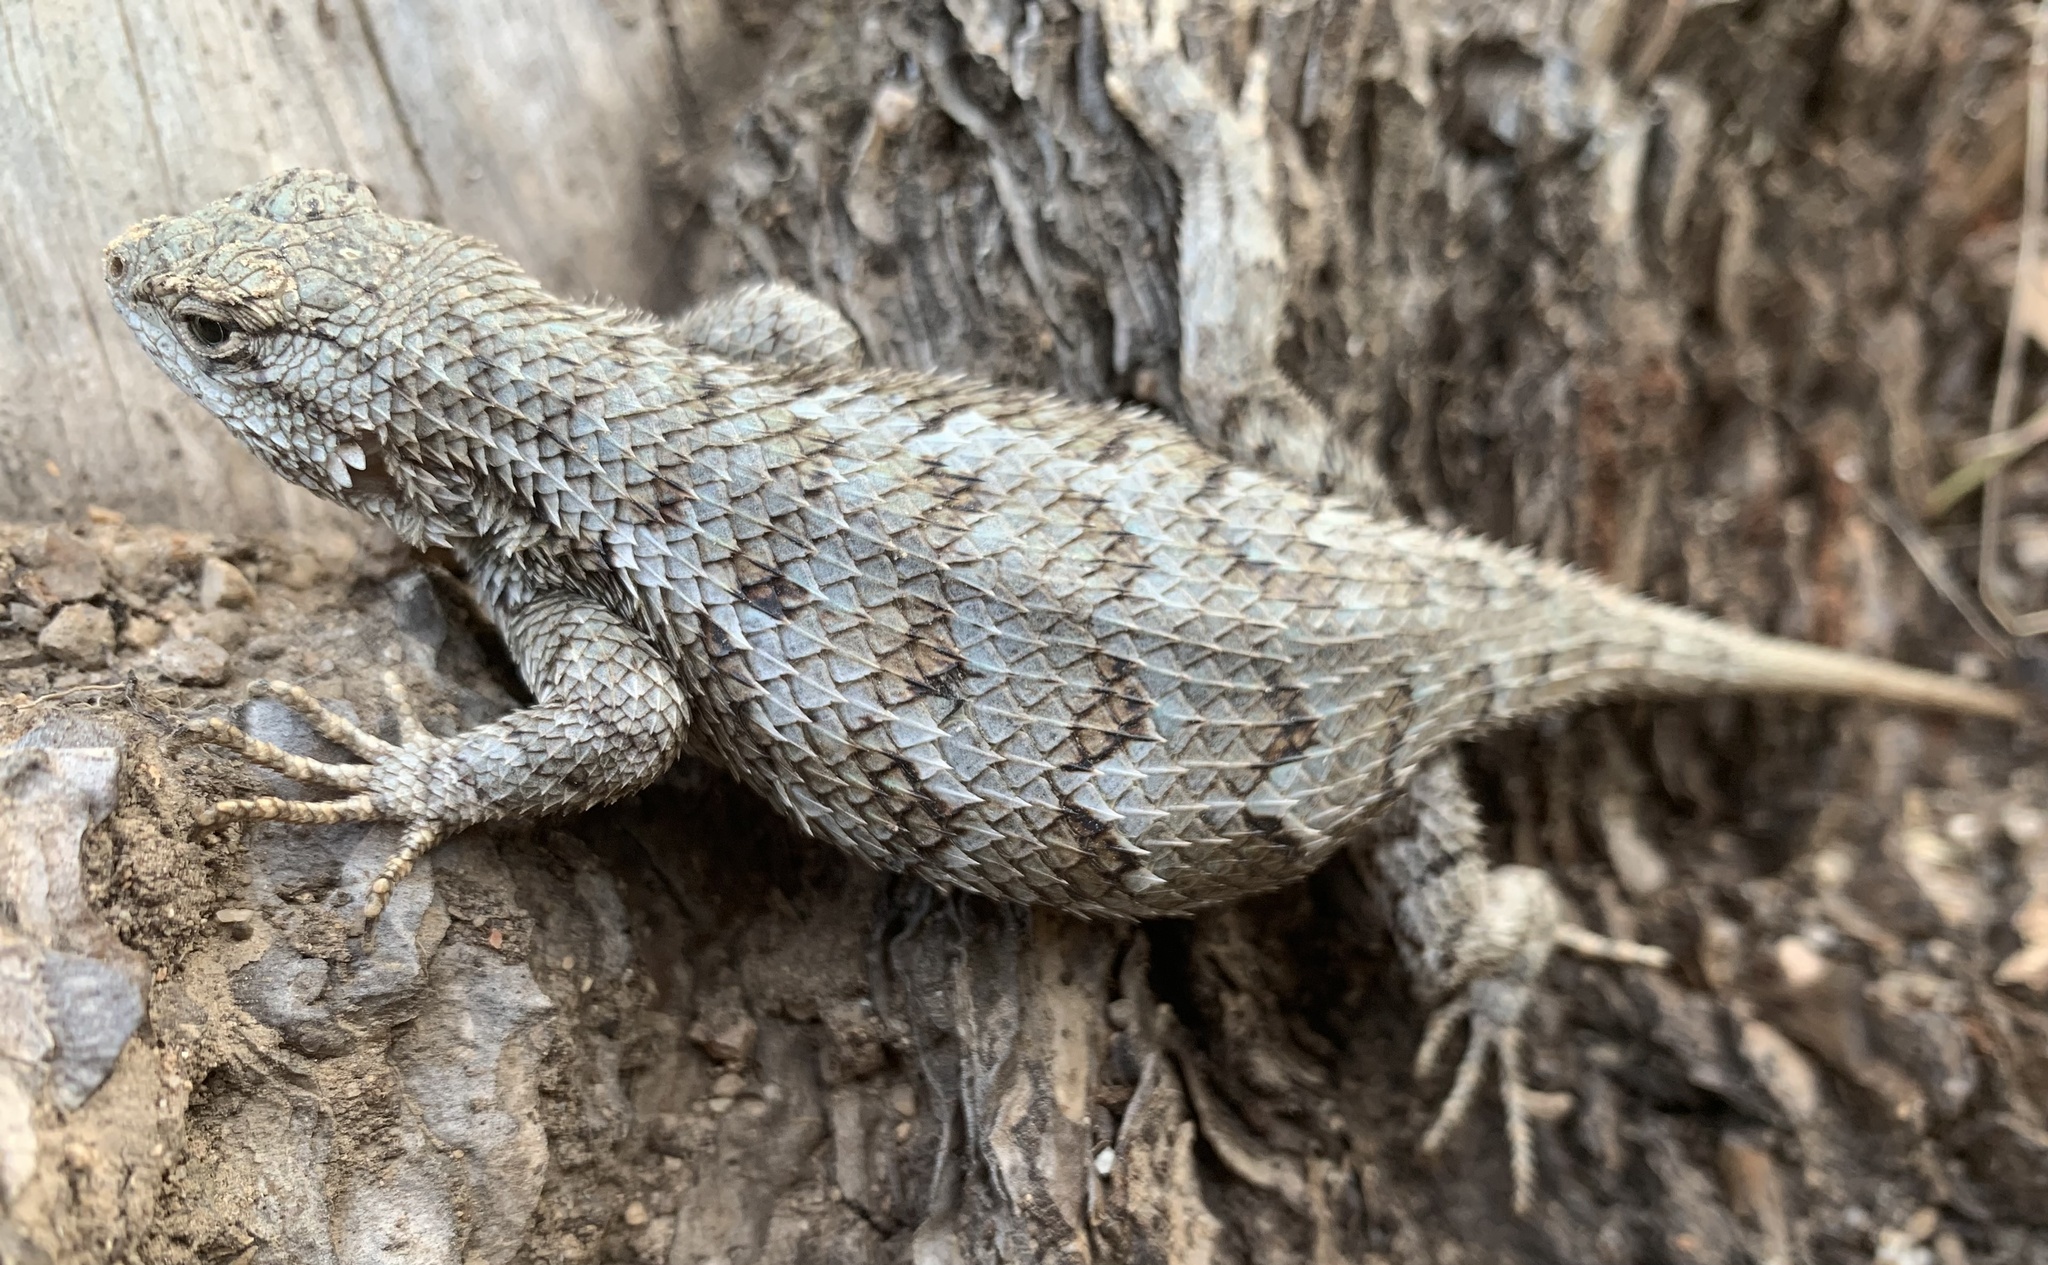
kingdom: Animalia
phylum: Chordata
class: Squamata
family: Phrynosomatidae
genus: Sceloporus
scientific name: Sceloporus occidentalis
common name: Western fence lizard
